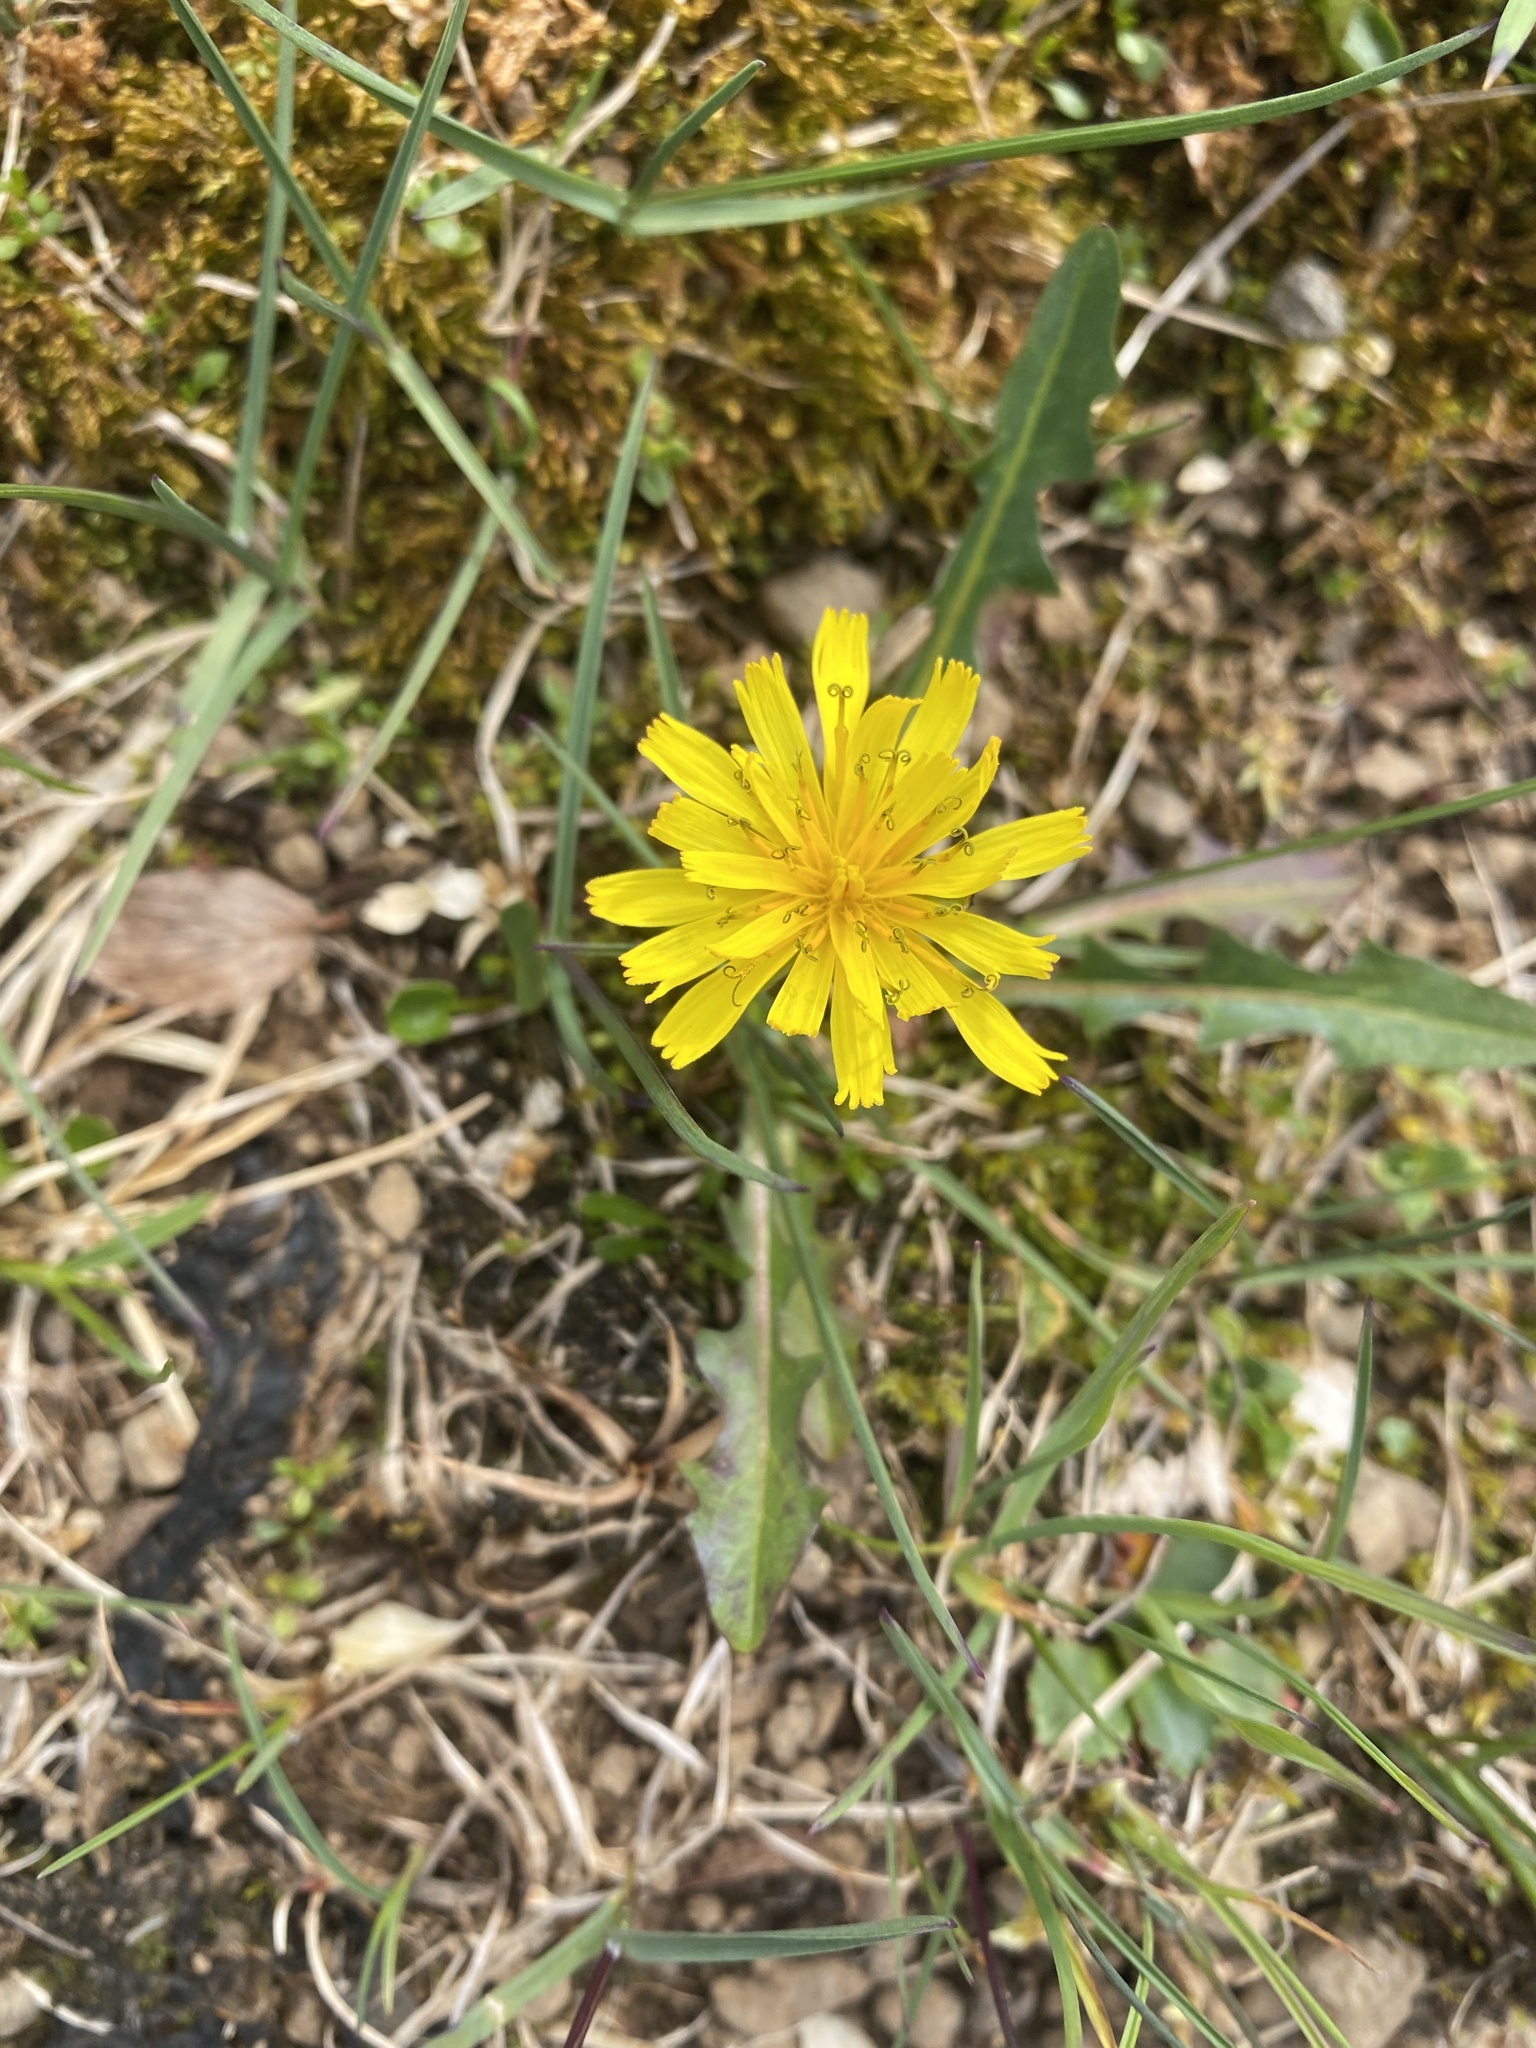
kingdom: Plantae
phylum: Tracheophyta
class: Magnoliopsida
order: Asterales
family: Asteraceae
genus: Taraxacum
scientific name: Taraxacum macilentum
